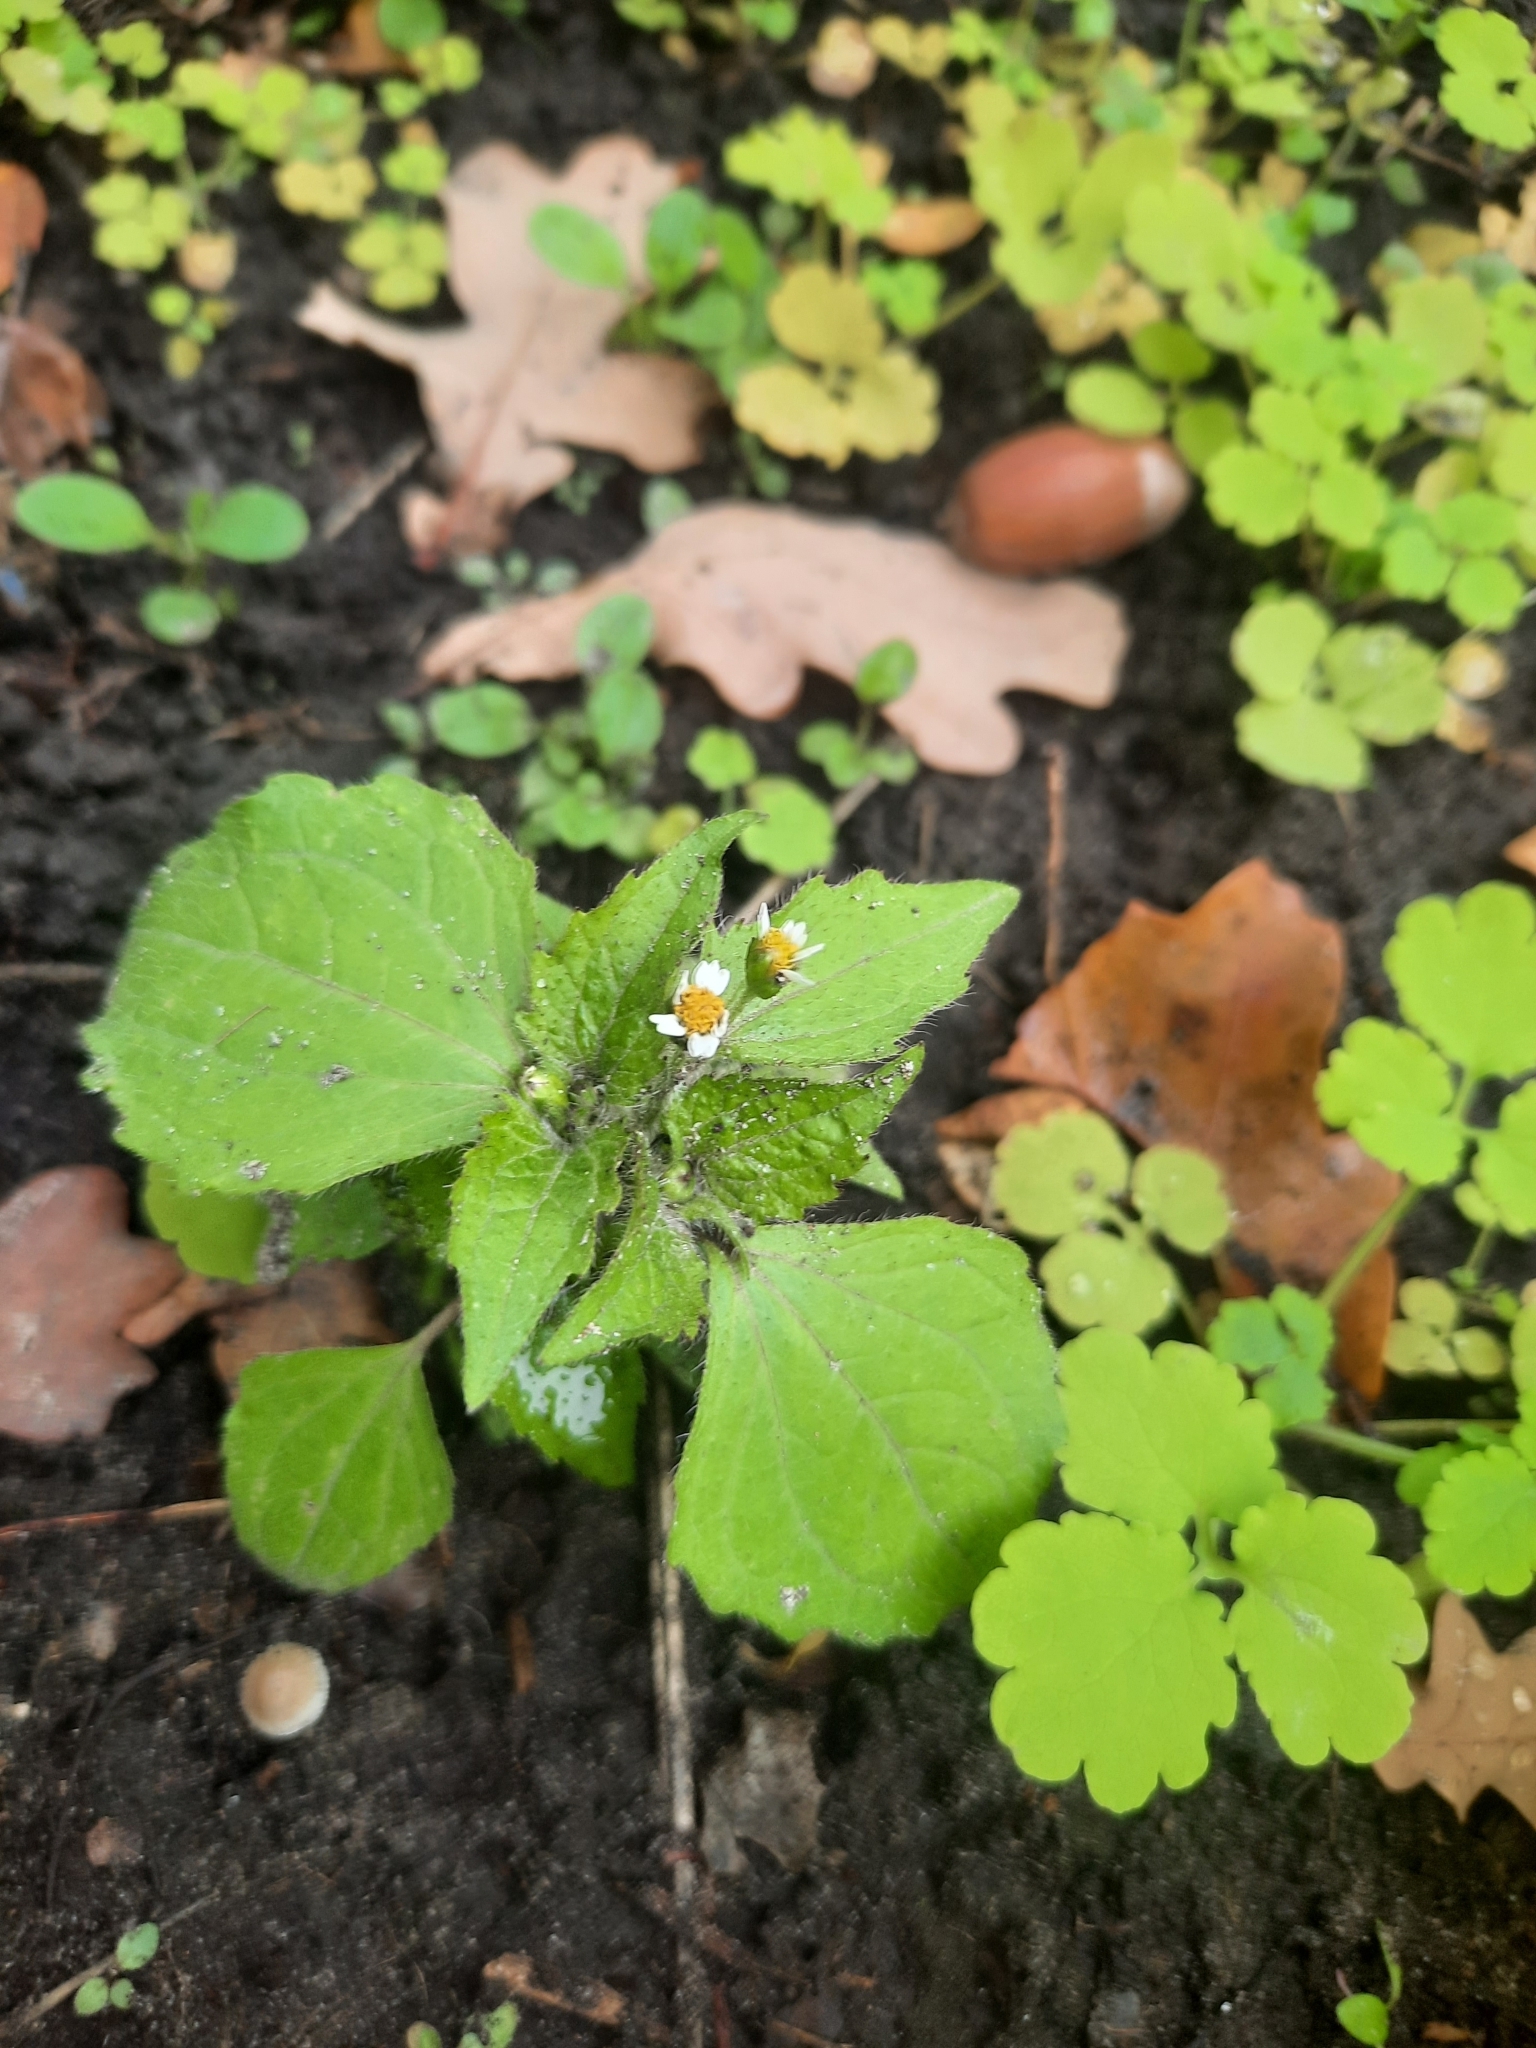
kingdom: Plantae
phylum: Tracheophyta
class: Magnoliopsida
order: Asterales
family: Asteraceae
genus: Galinsoga
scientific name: Galinsoga quadriradiata
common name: Shaggy soldier
